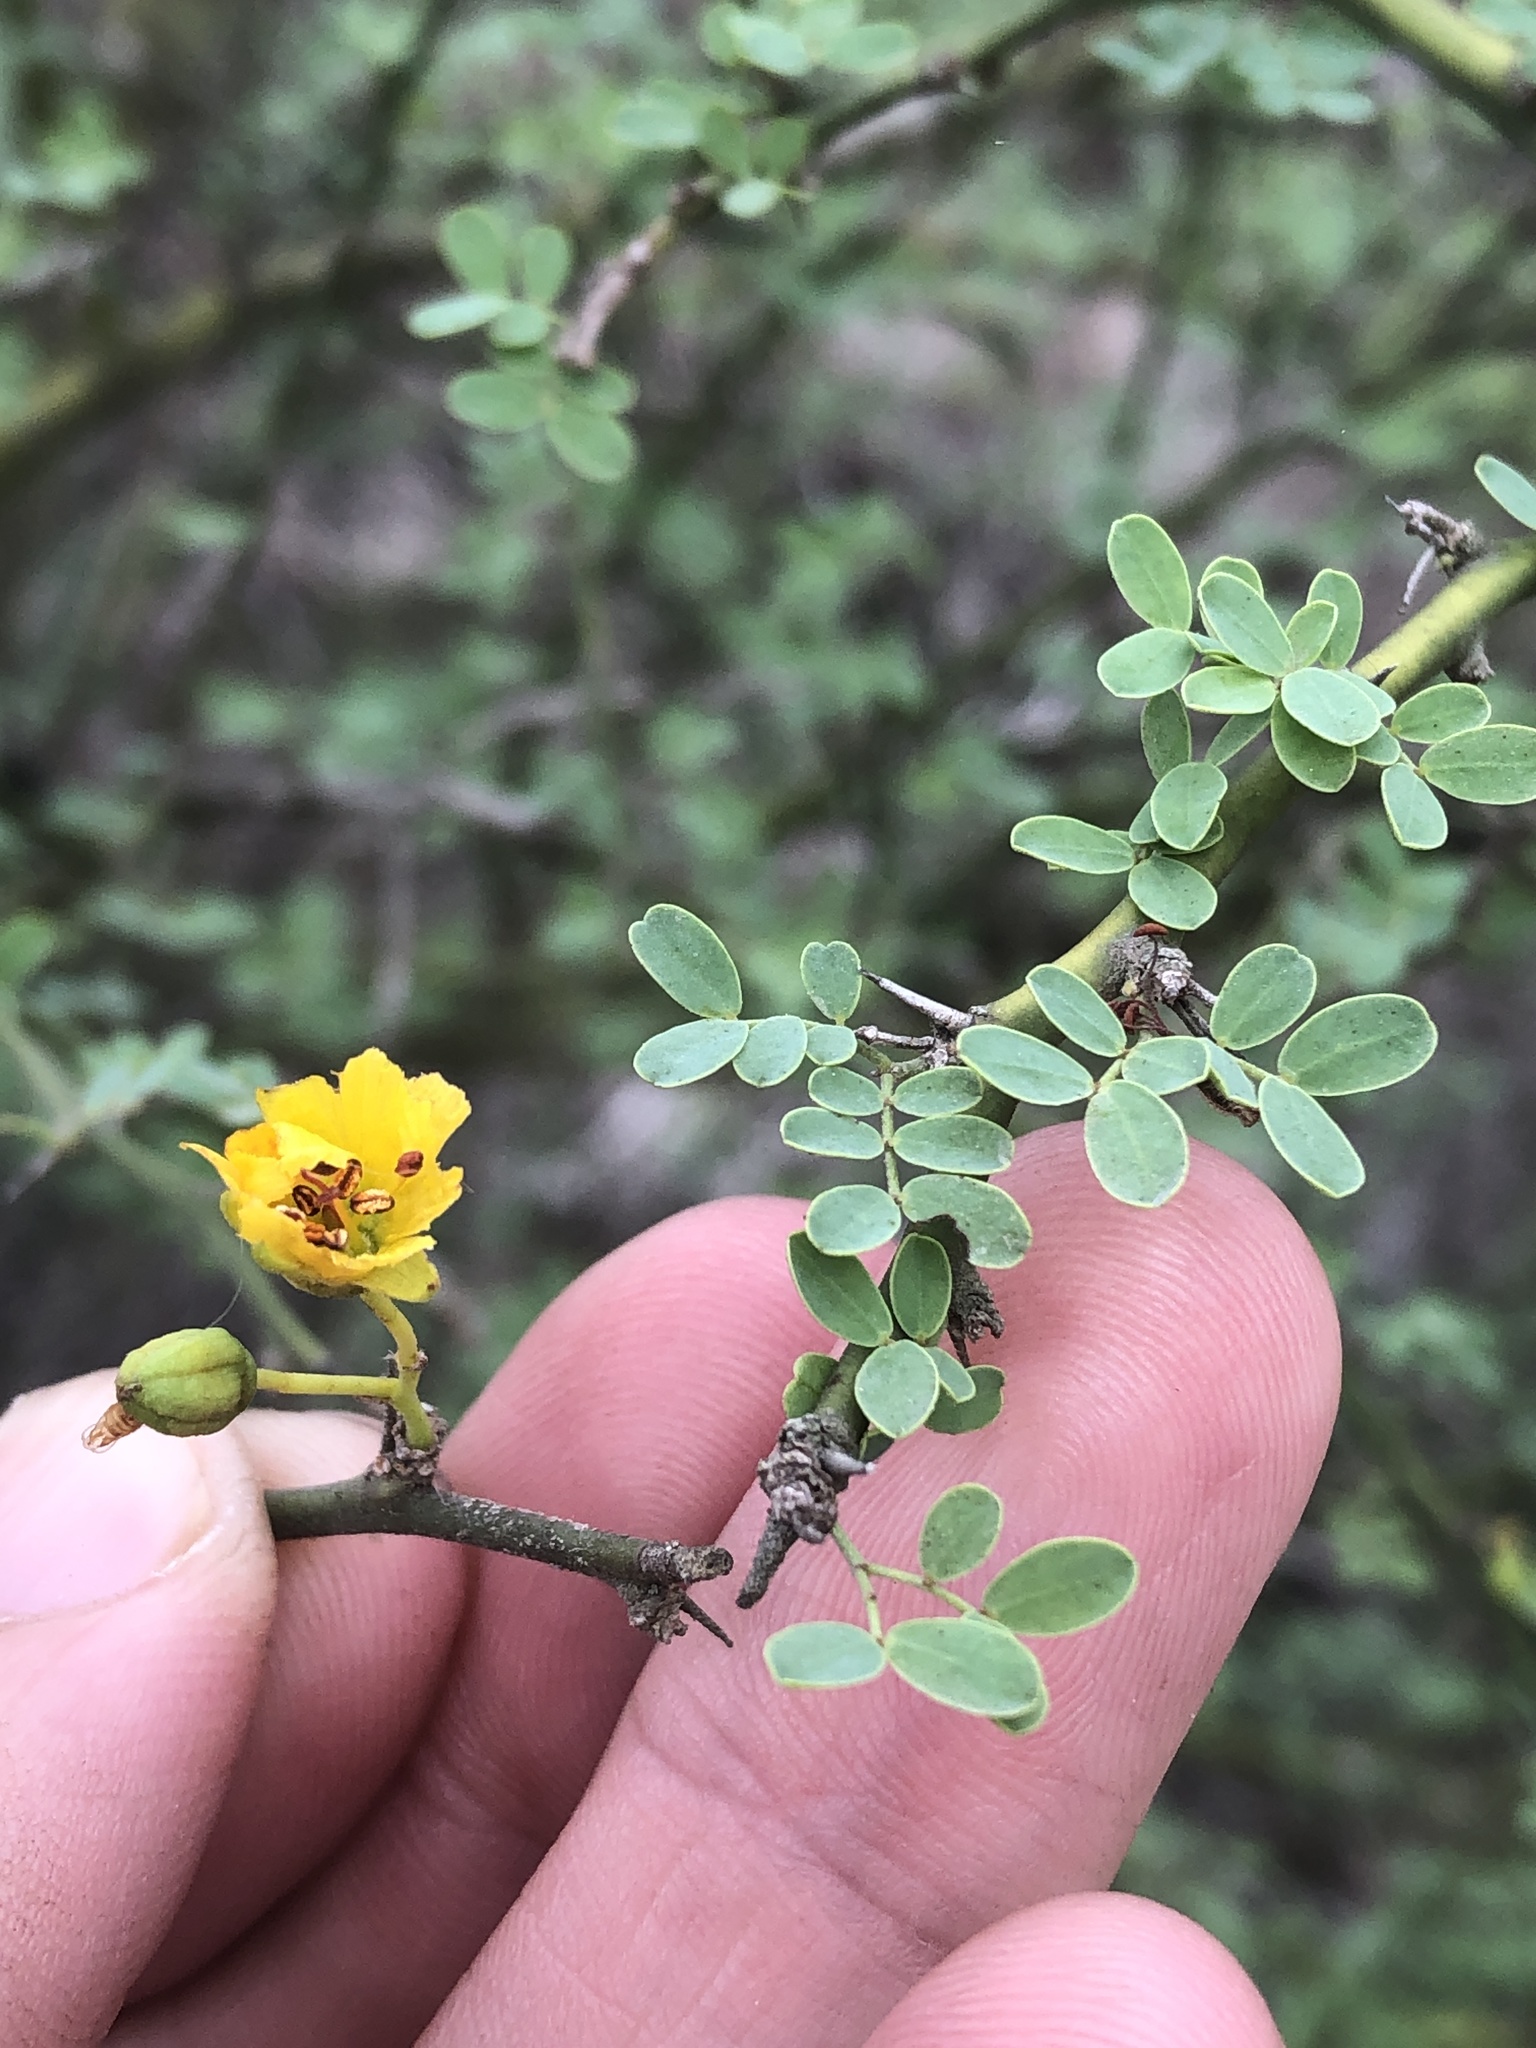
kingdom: Plantae
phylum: Tracheophyta
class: Magnoliopsida
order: Fabales
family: Fabaceae
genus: Parkinsonia
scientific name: Parkinsonia texana
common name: Texas paloverde
